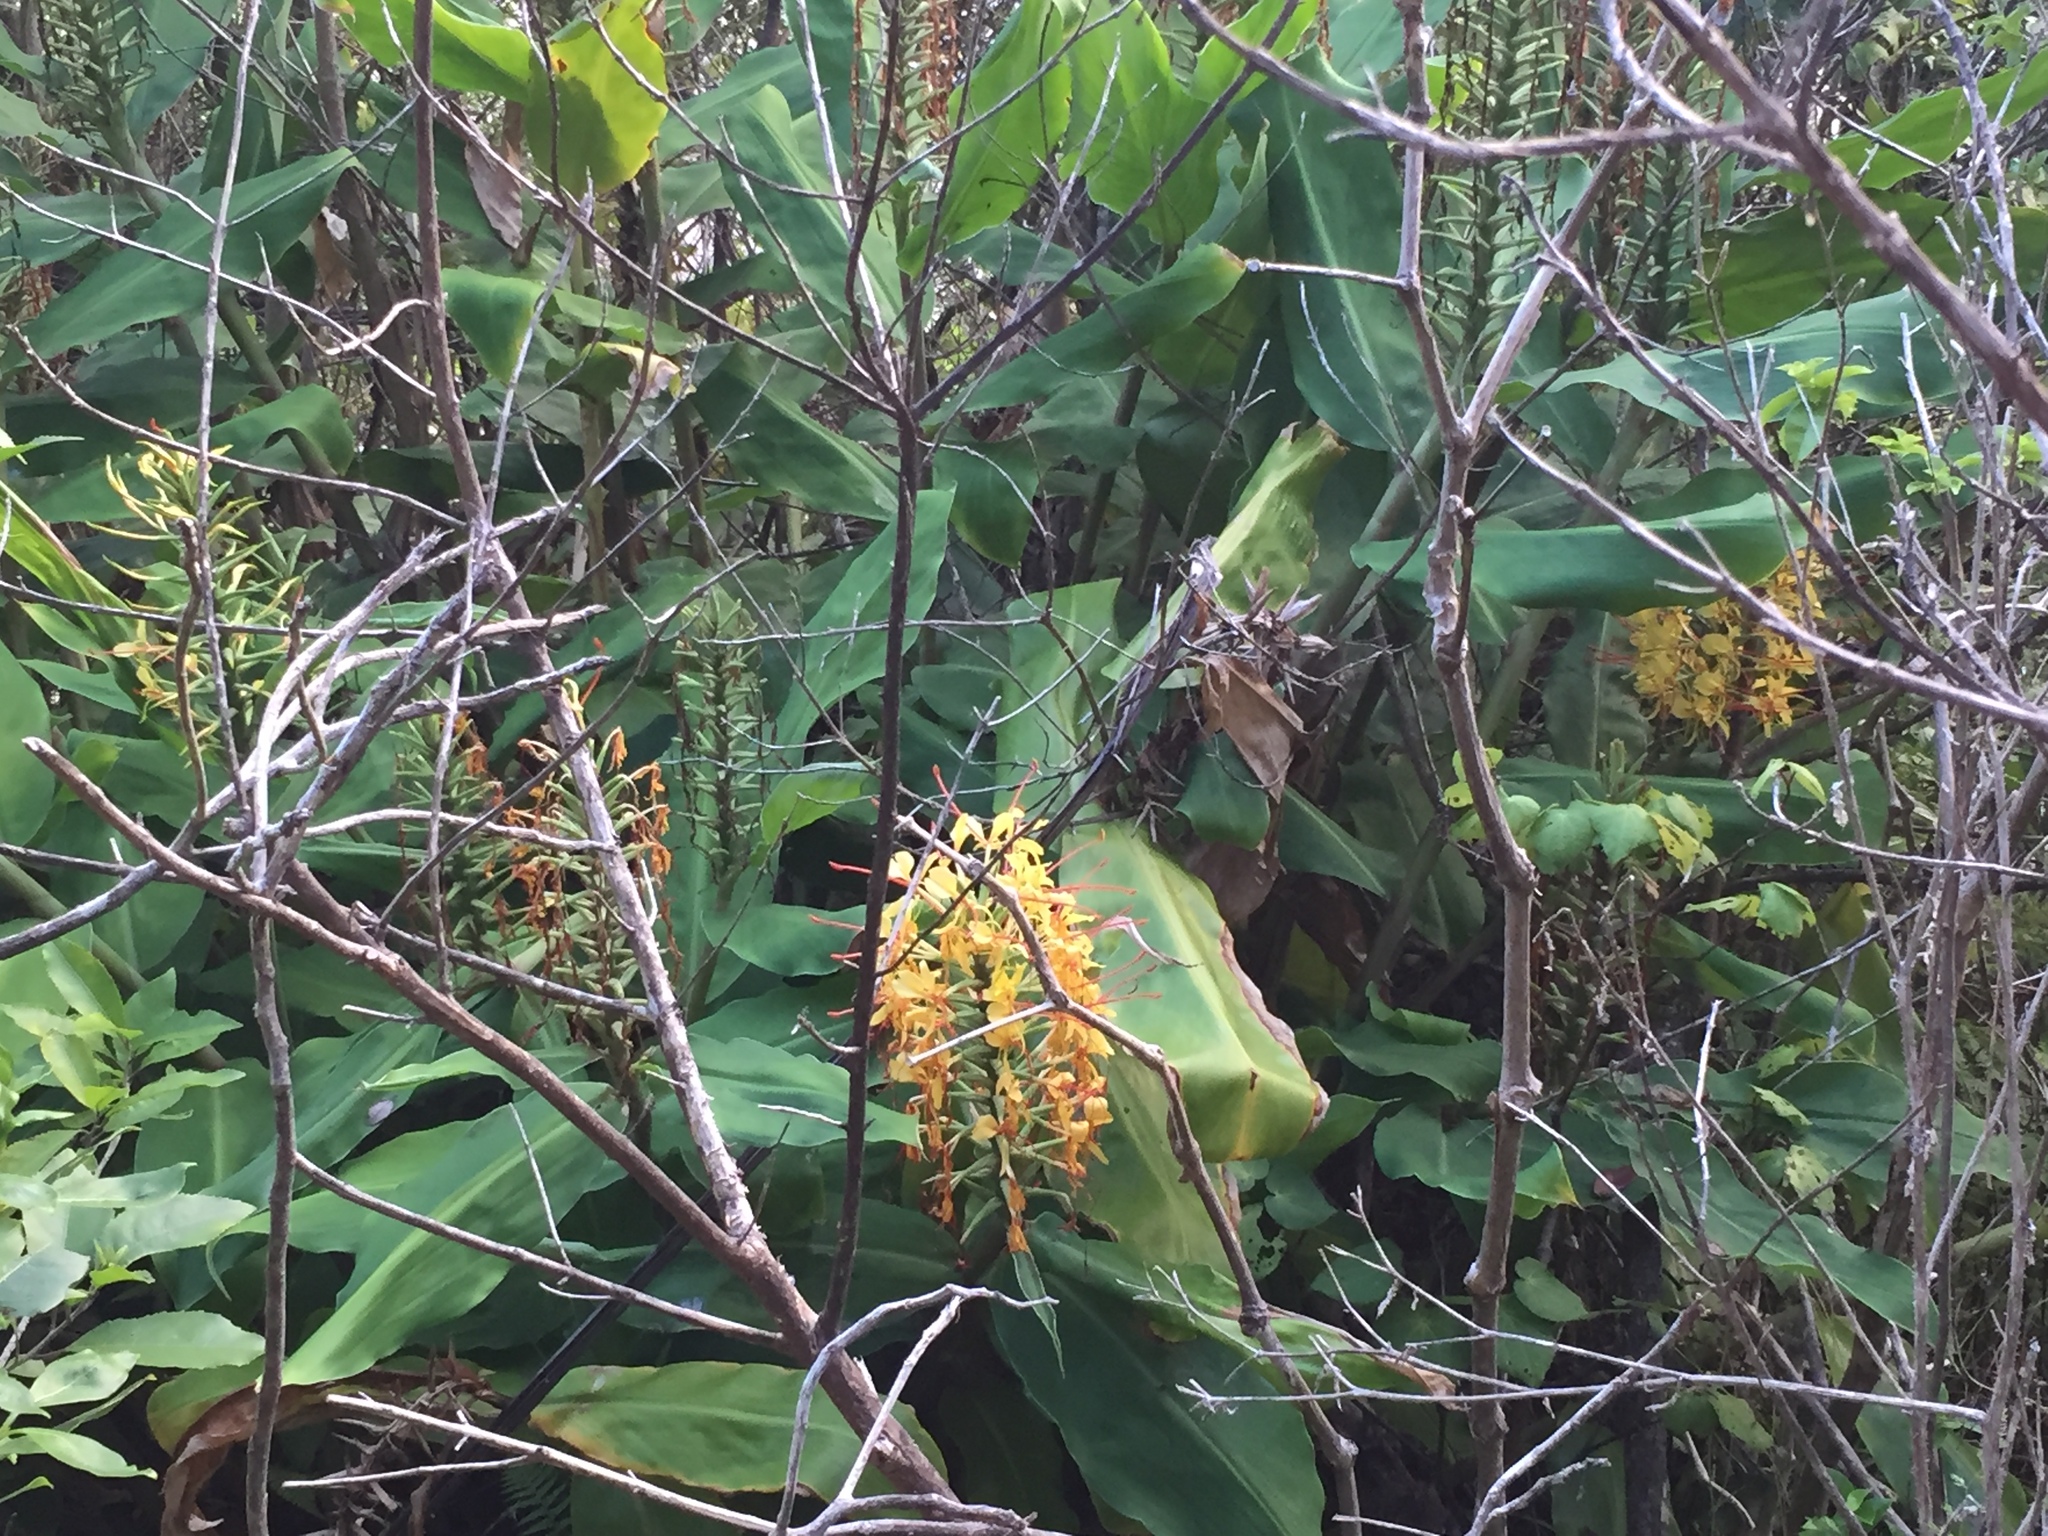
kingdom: Plantae
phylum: Tracheophyta
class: Liliopsida
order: Zingiberales
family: Zingiberaceae
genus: Hedychium
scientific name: Hedychium gardnerianum
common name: Himalayan ginger
